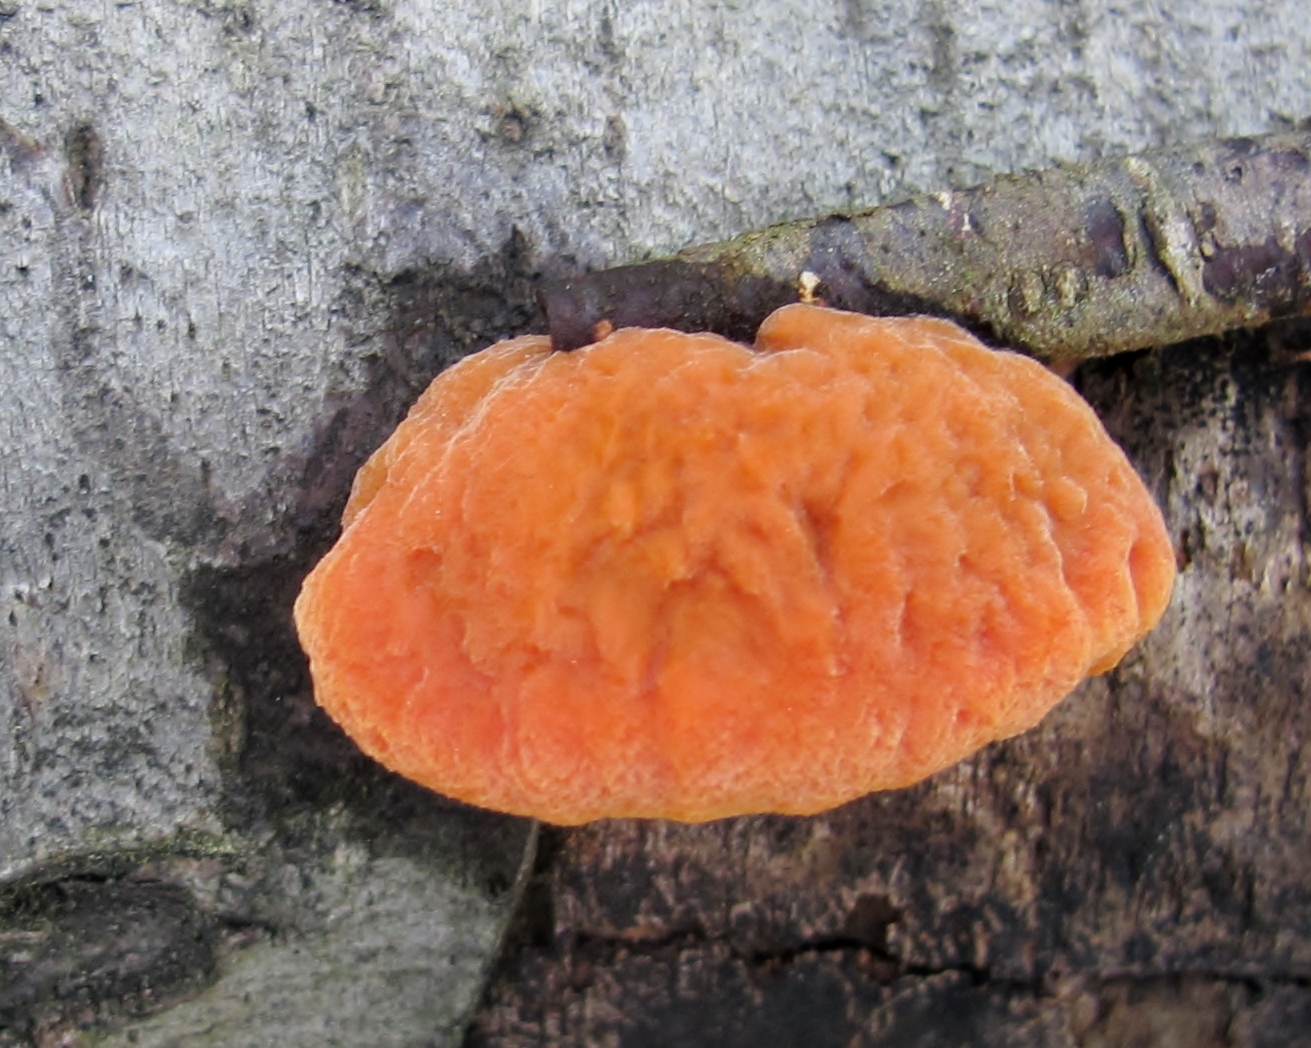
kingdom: Fungi
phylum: Basidiomycota
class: Agaricomycetes
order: Polyporales
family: Polyporaceae
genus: Trametes
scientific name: Trametes cinnabarina
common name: Northern cinnabar polypore
